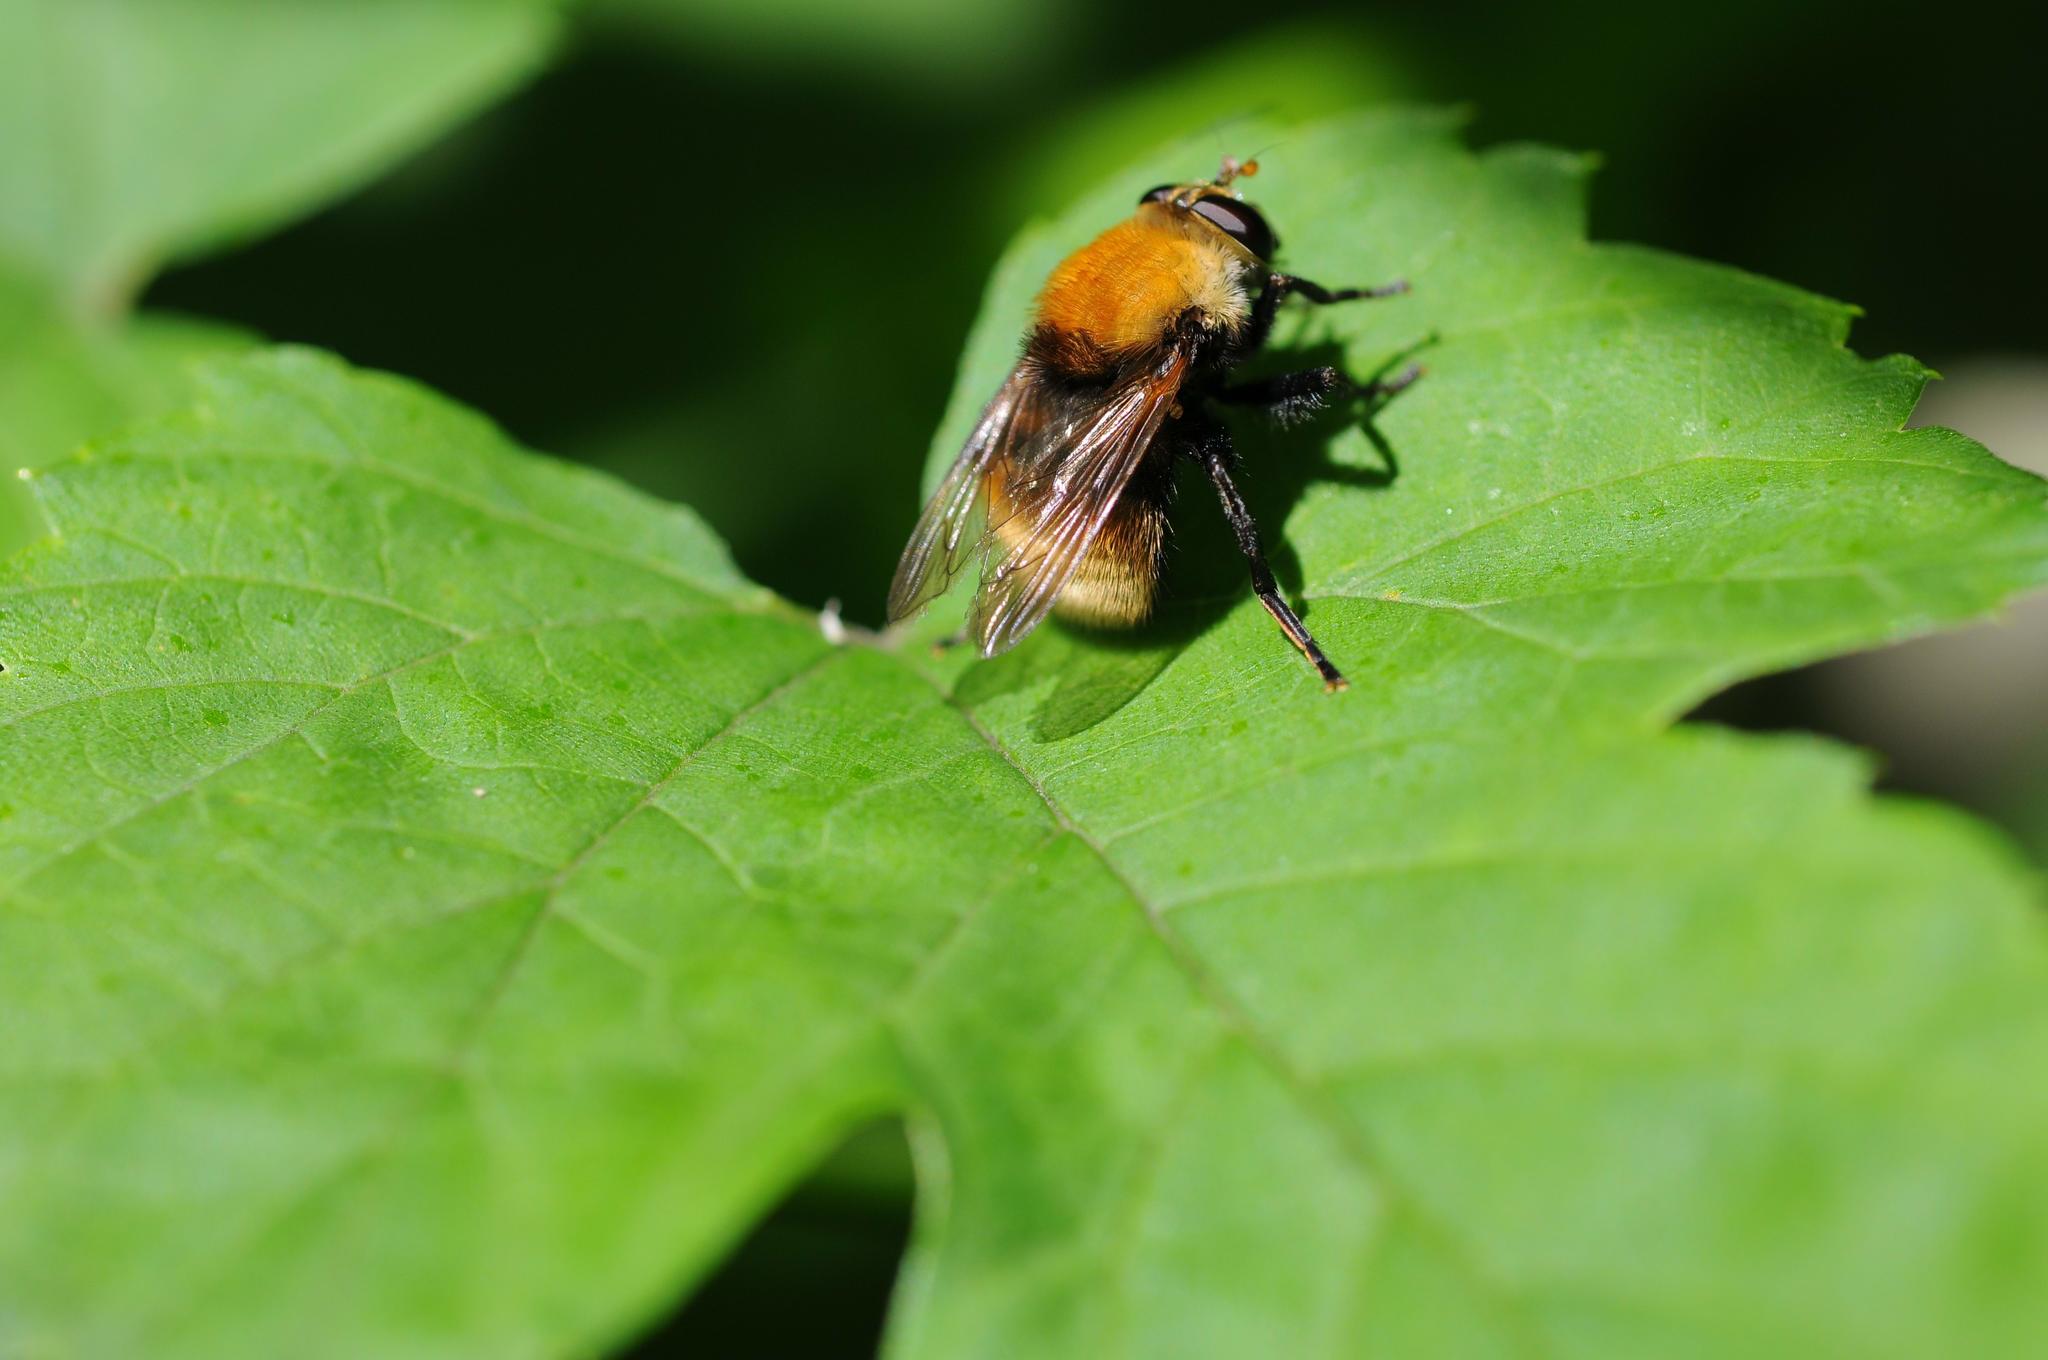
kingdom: Animalia
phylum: Arthropoda
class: Insecta
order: Diptera
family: Syrphidae
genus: Criorhina
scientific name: Criorhina berberina
